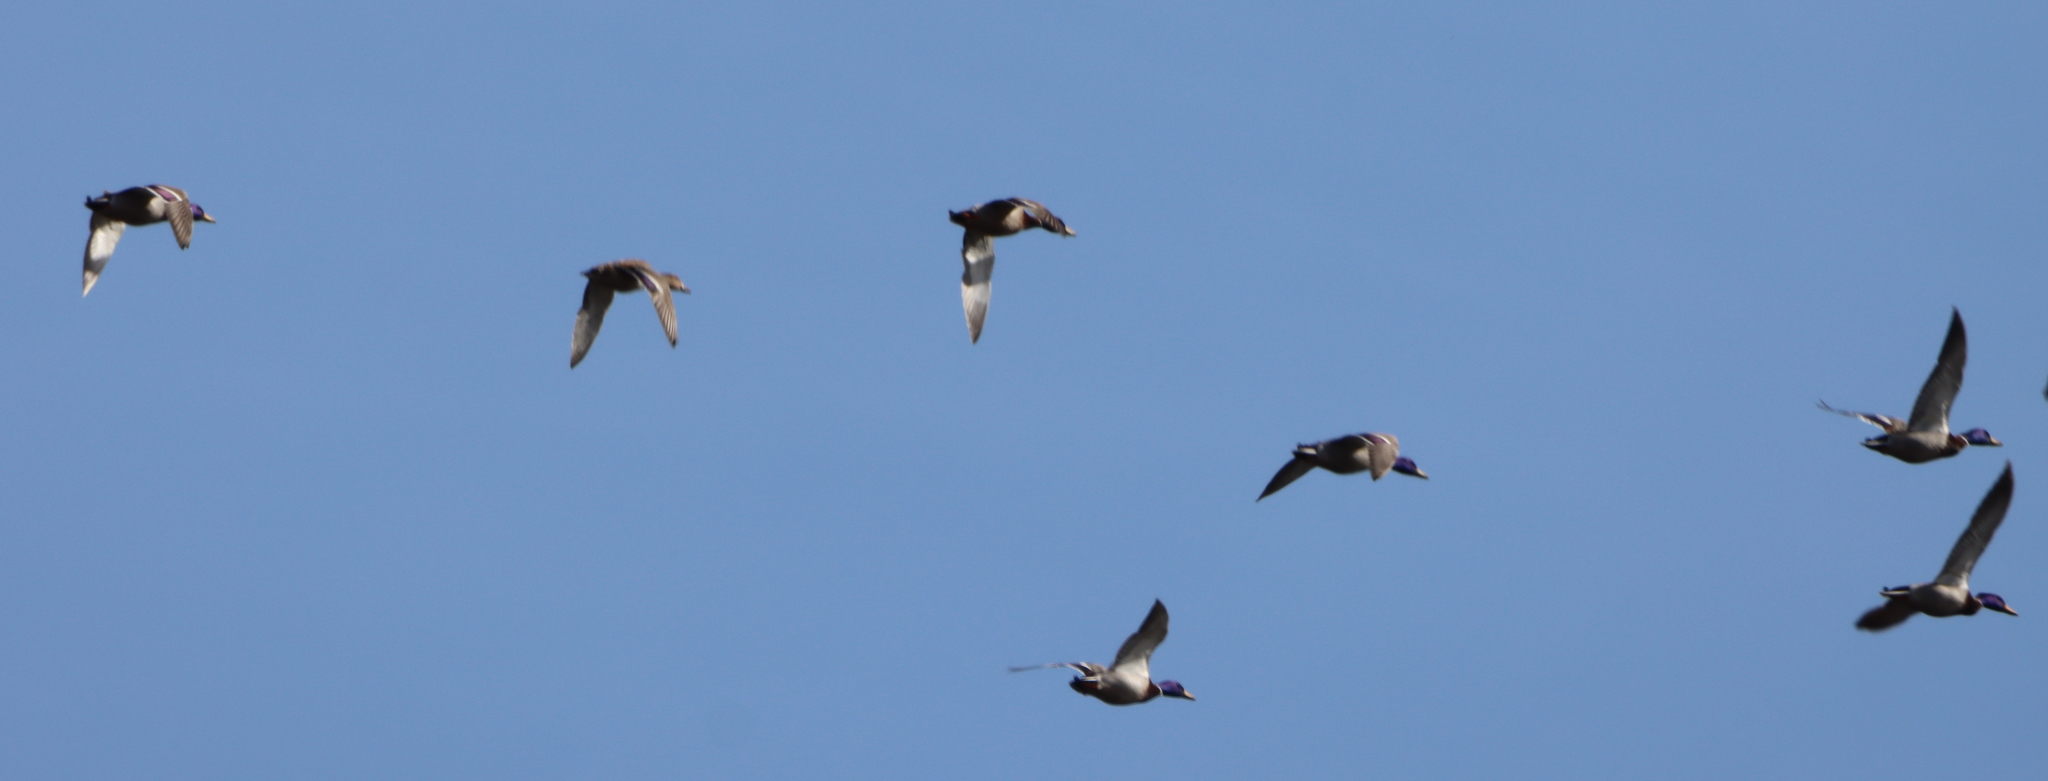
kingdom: Animalia
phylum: Chordata
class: Aves
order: Anseriformes
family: Anatidae
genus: Anas
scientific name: Anas platyrhynchos
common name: Mallard
